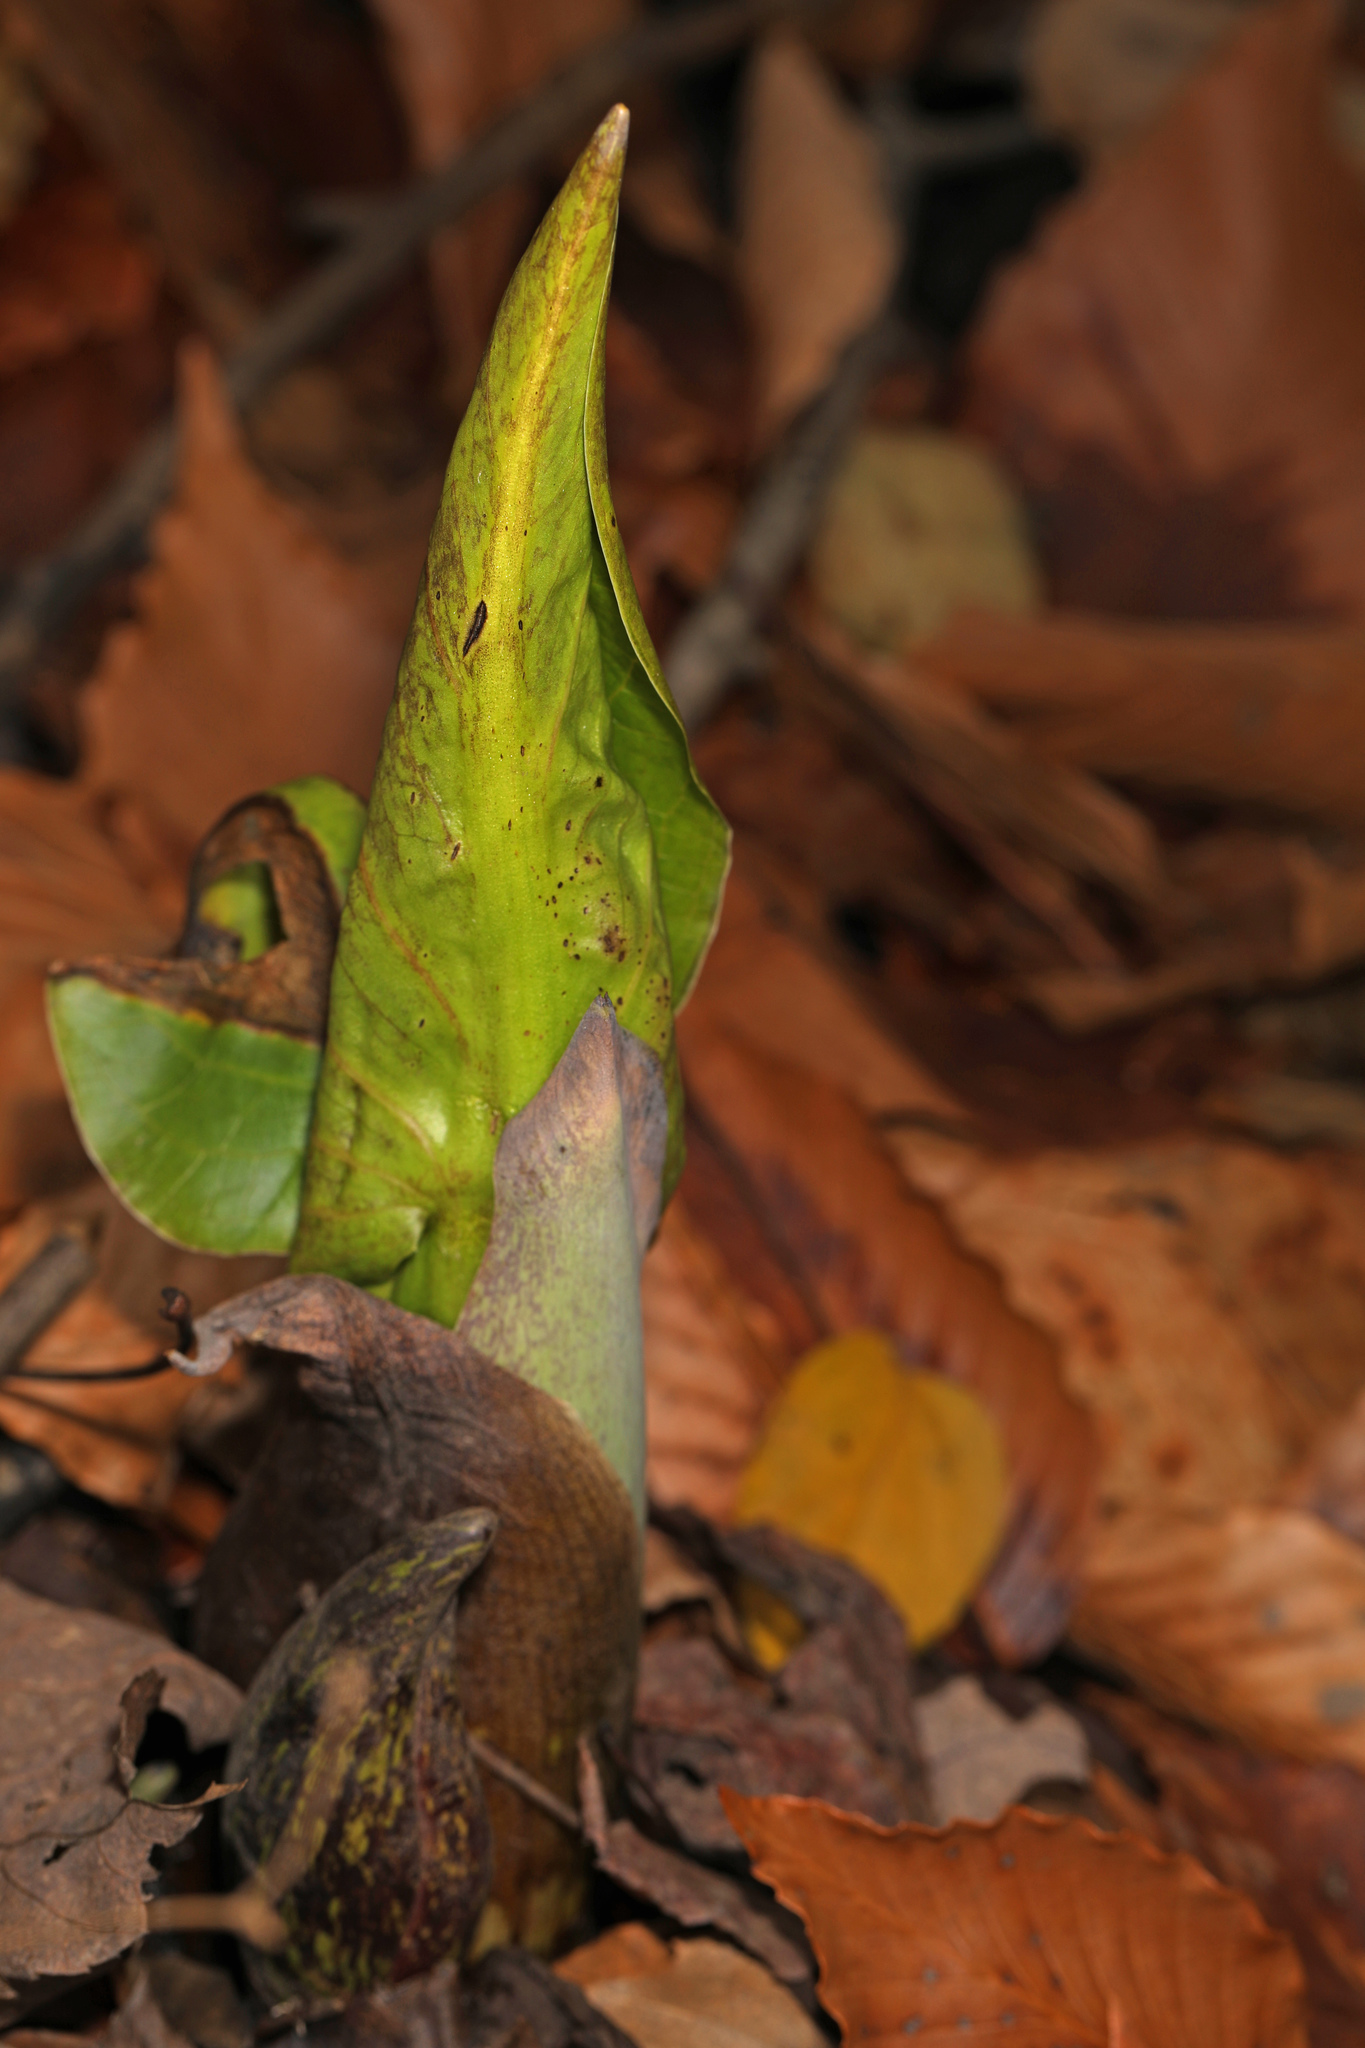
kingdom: Plantae
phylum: Tracheophyta
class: Liliopsida
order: Alismatales
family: Araceae
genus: Symplocarpus
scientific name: Symplocarpus foetidus
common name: Eastern skunk cabbage
